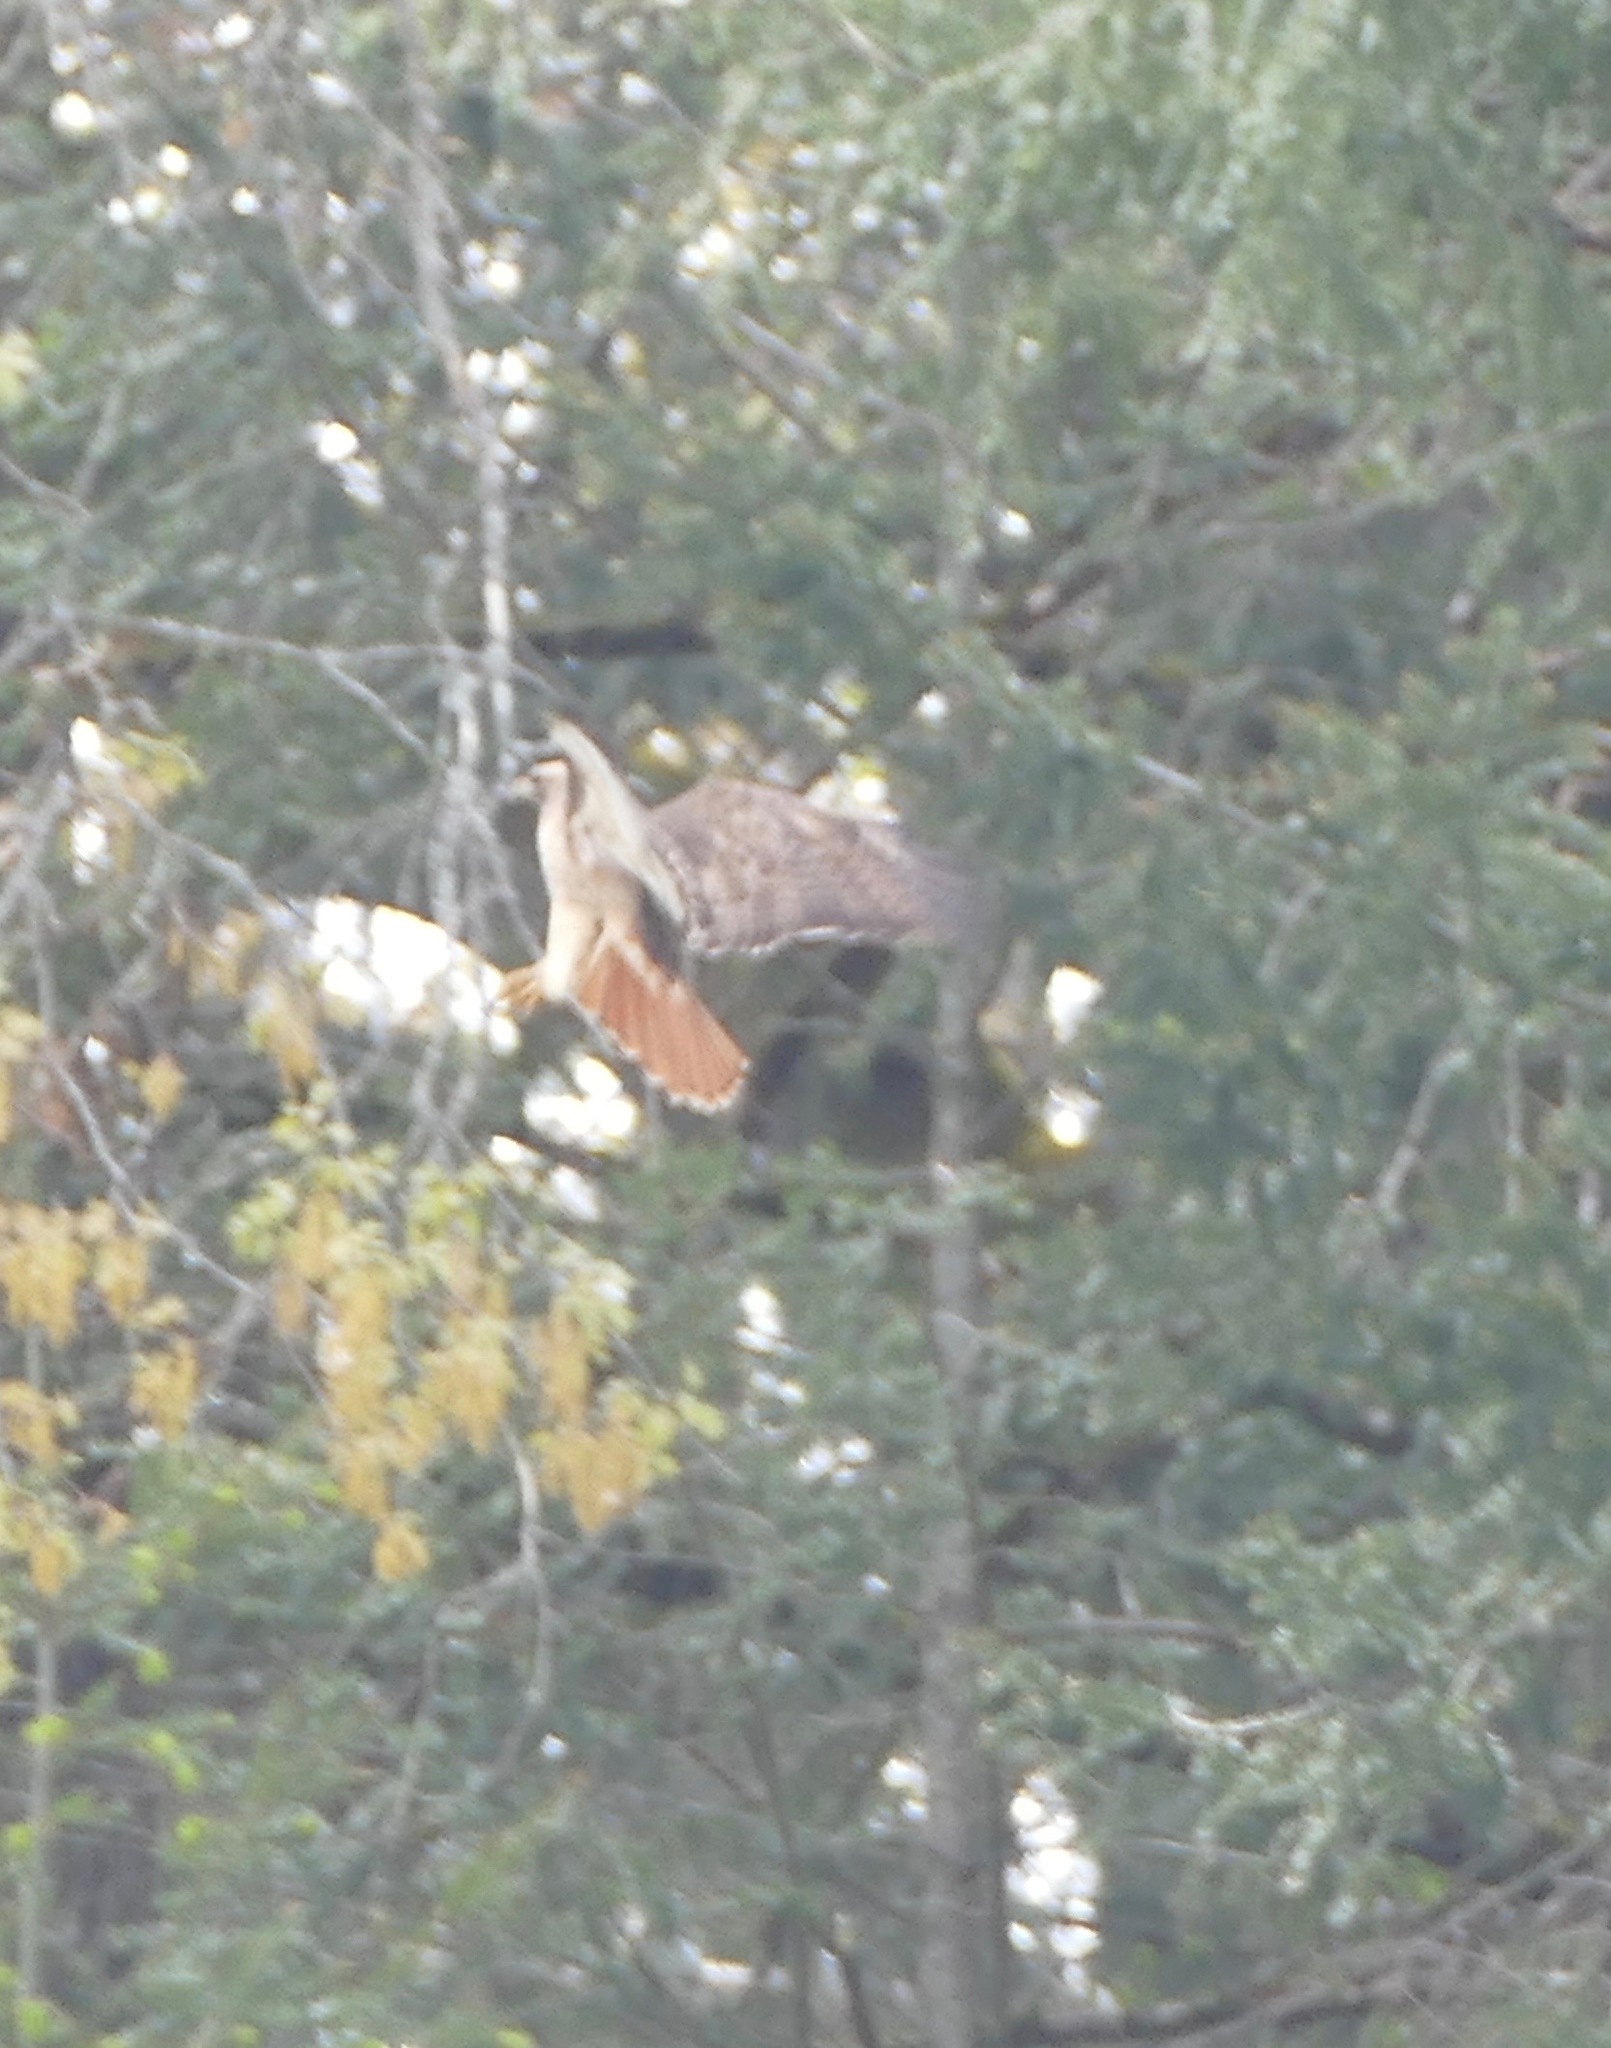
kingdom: Animalia
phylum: Chordata
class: Aves
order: Accipitriformes
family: Accipitridae
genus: Buteo
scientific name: Buteo jamaicensis
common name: Red-tailed hawk
